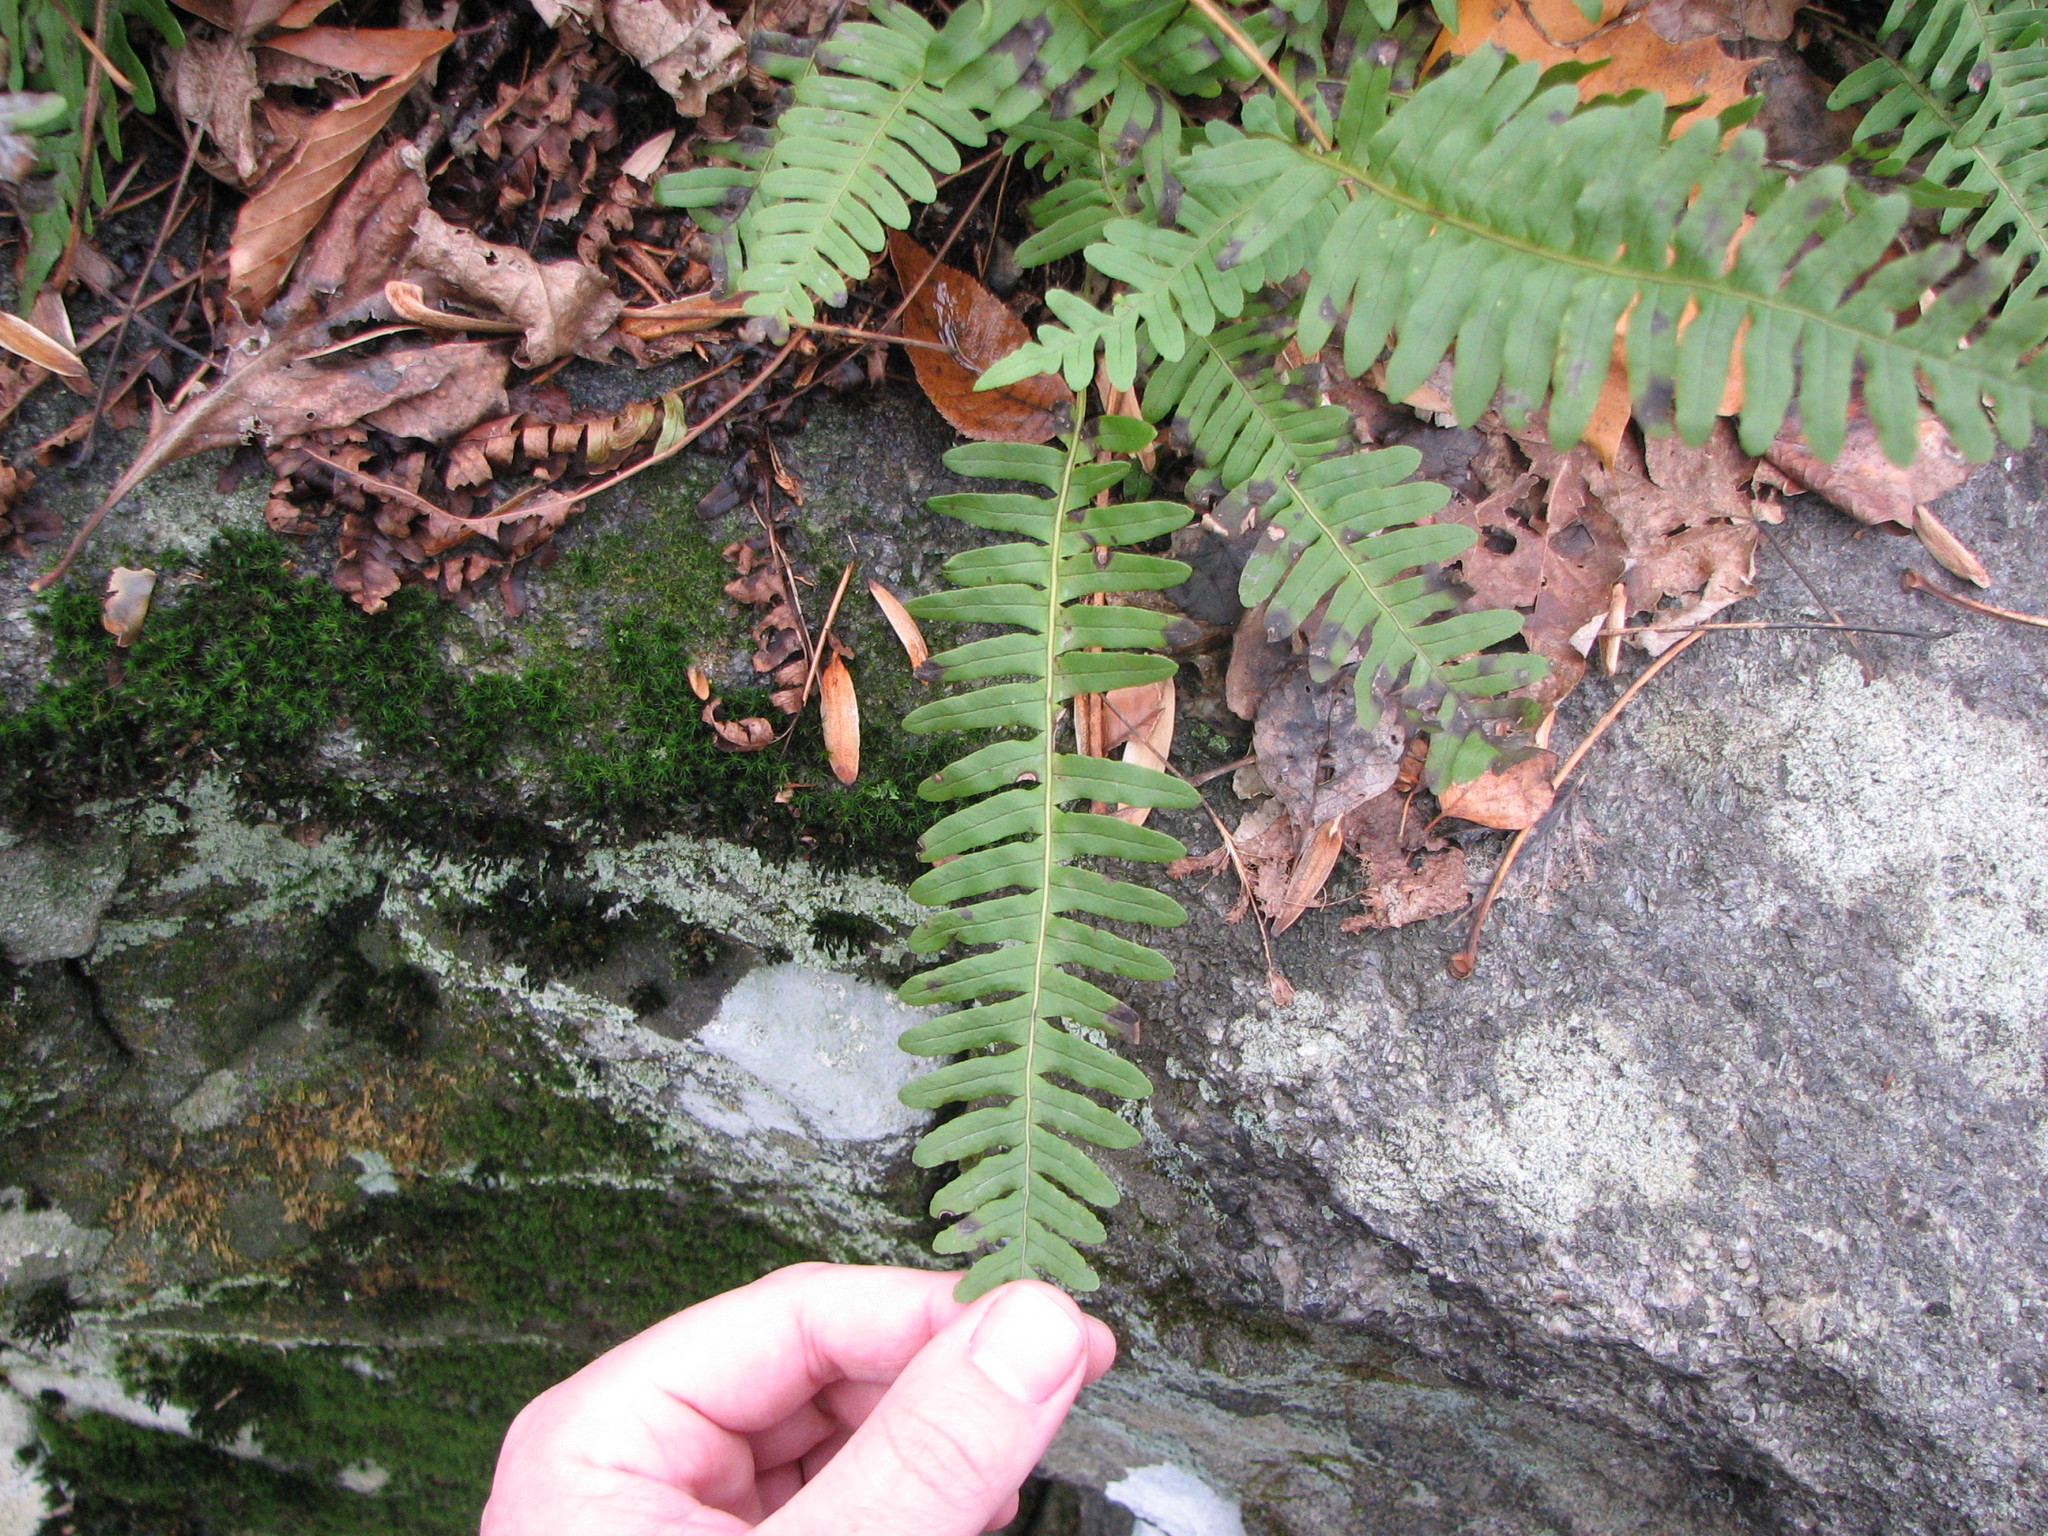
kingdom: Plantae
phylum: Tracheophyta
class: Polypodiopsida
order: Polypodiales
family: Polypodiaceae
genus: Polypodium
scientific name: Polypodium virginianum
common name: American wall fern
